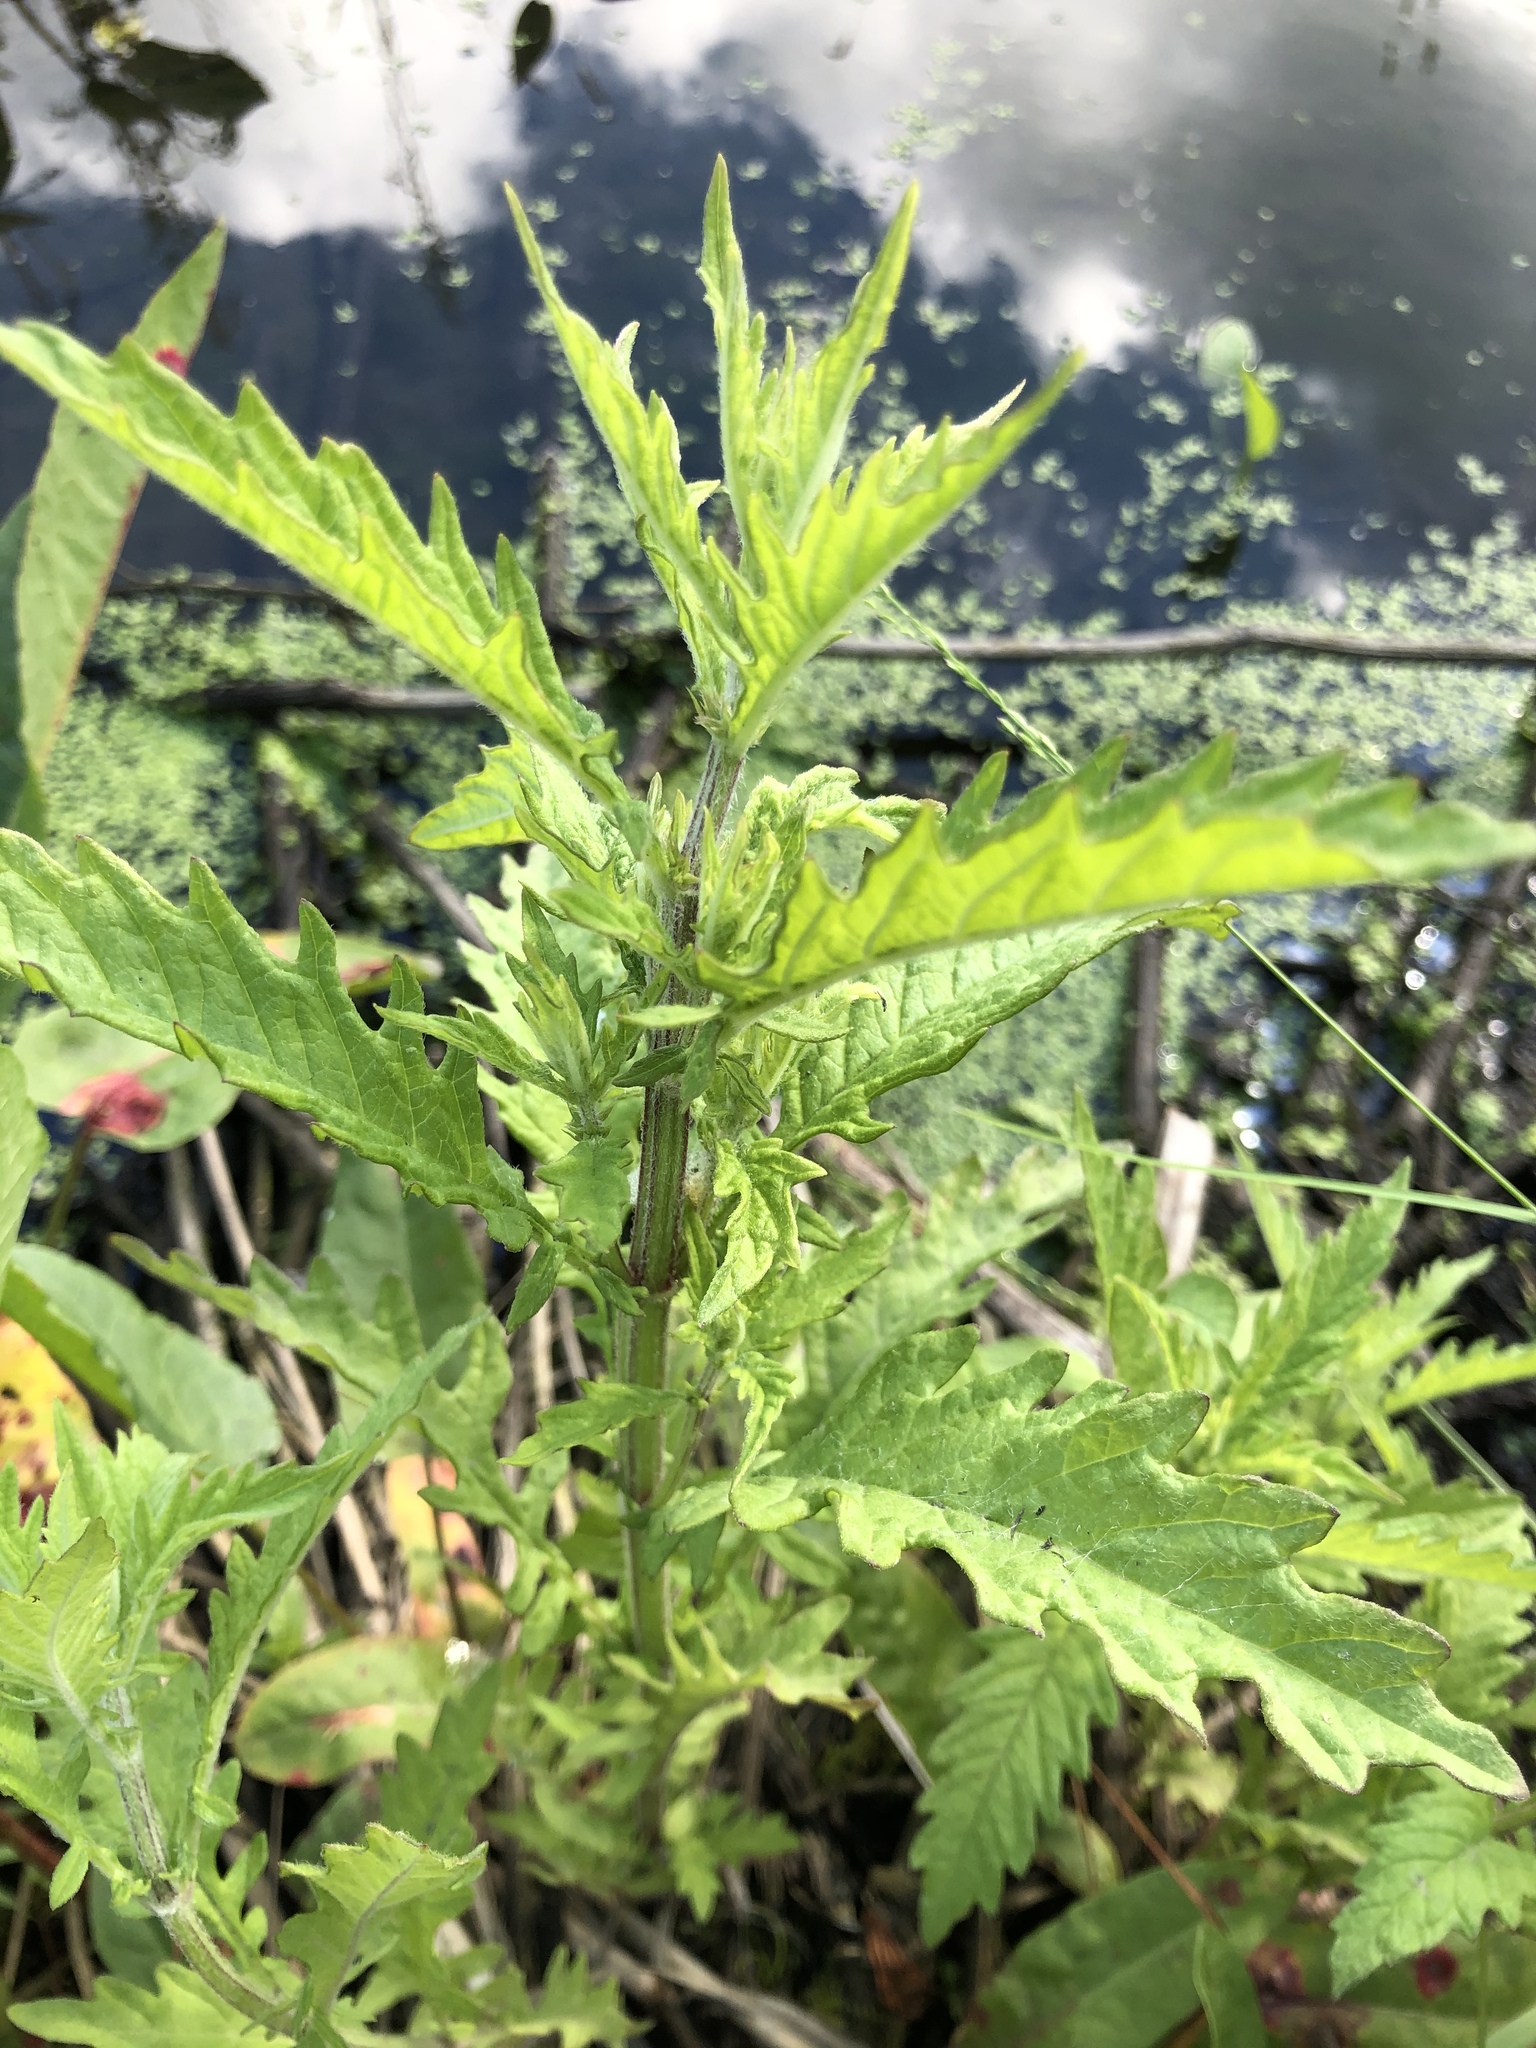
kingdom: Plantae
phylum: Tracheophyta
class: Magnoliopsida
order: Lamiales
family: Lamiaceae
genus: Lycopus
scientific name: Lycopus europaeus
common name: European bugleweed
